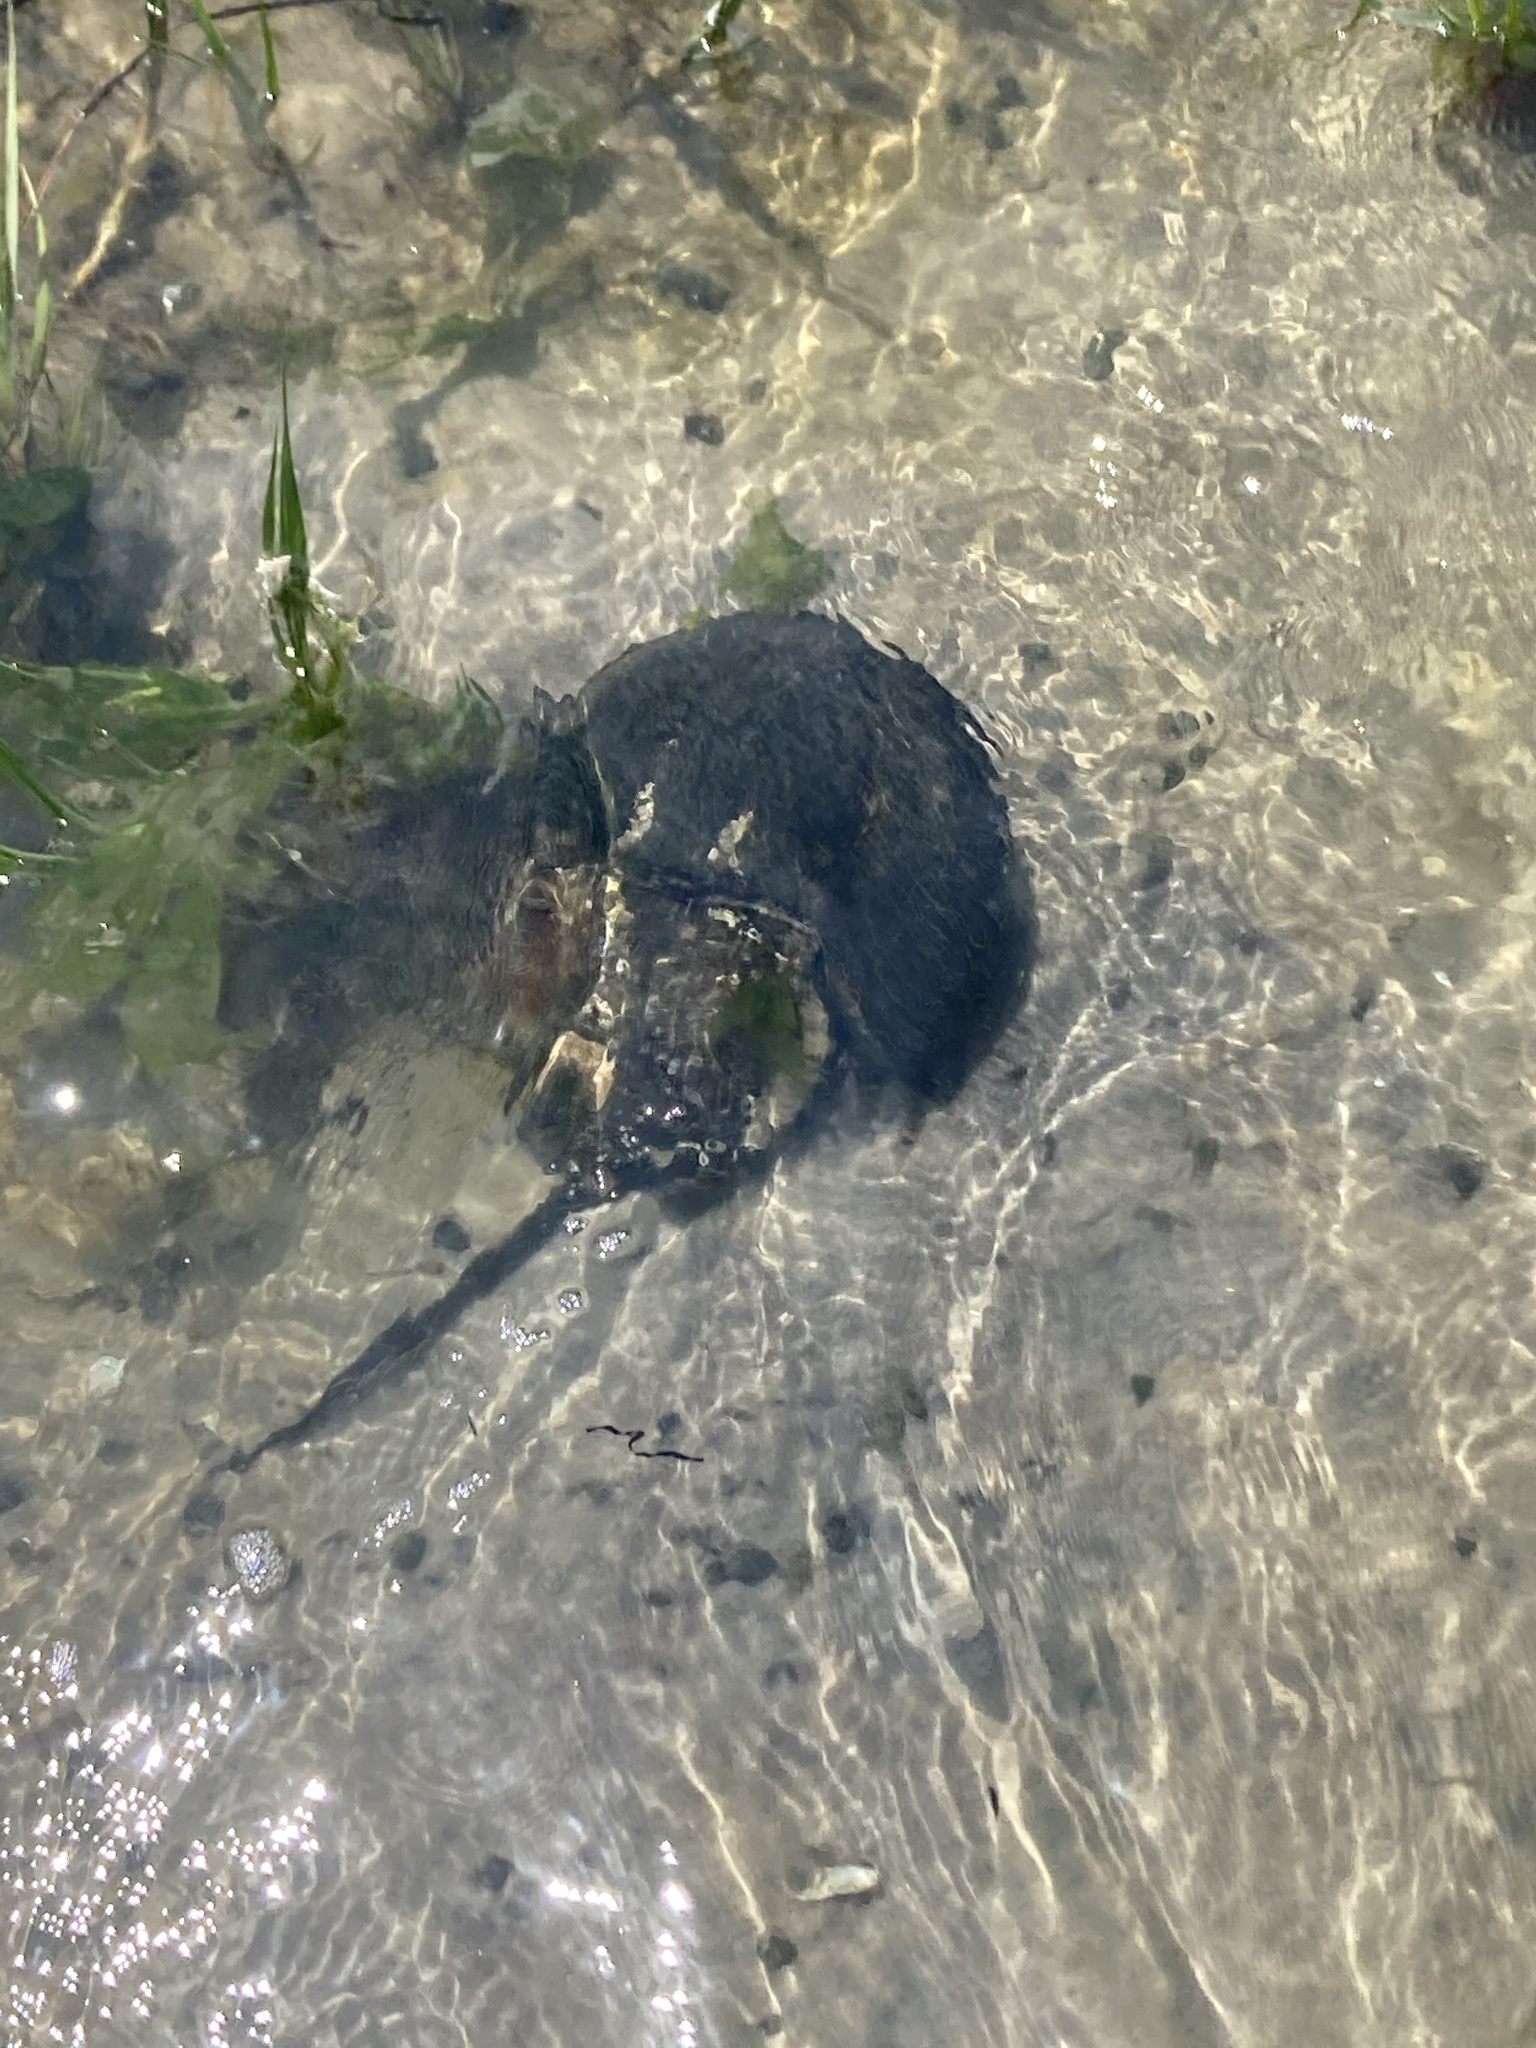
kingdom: Animalia
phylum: Arthropoda
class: Merostomata
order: Xiphosurida
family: Limulidae
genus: Limulus
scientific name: Limulus polyphemus
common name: Horseshoe crab
